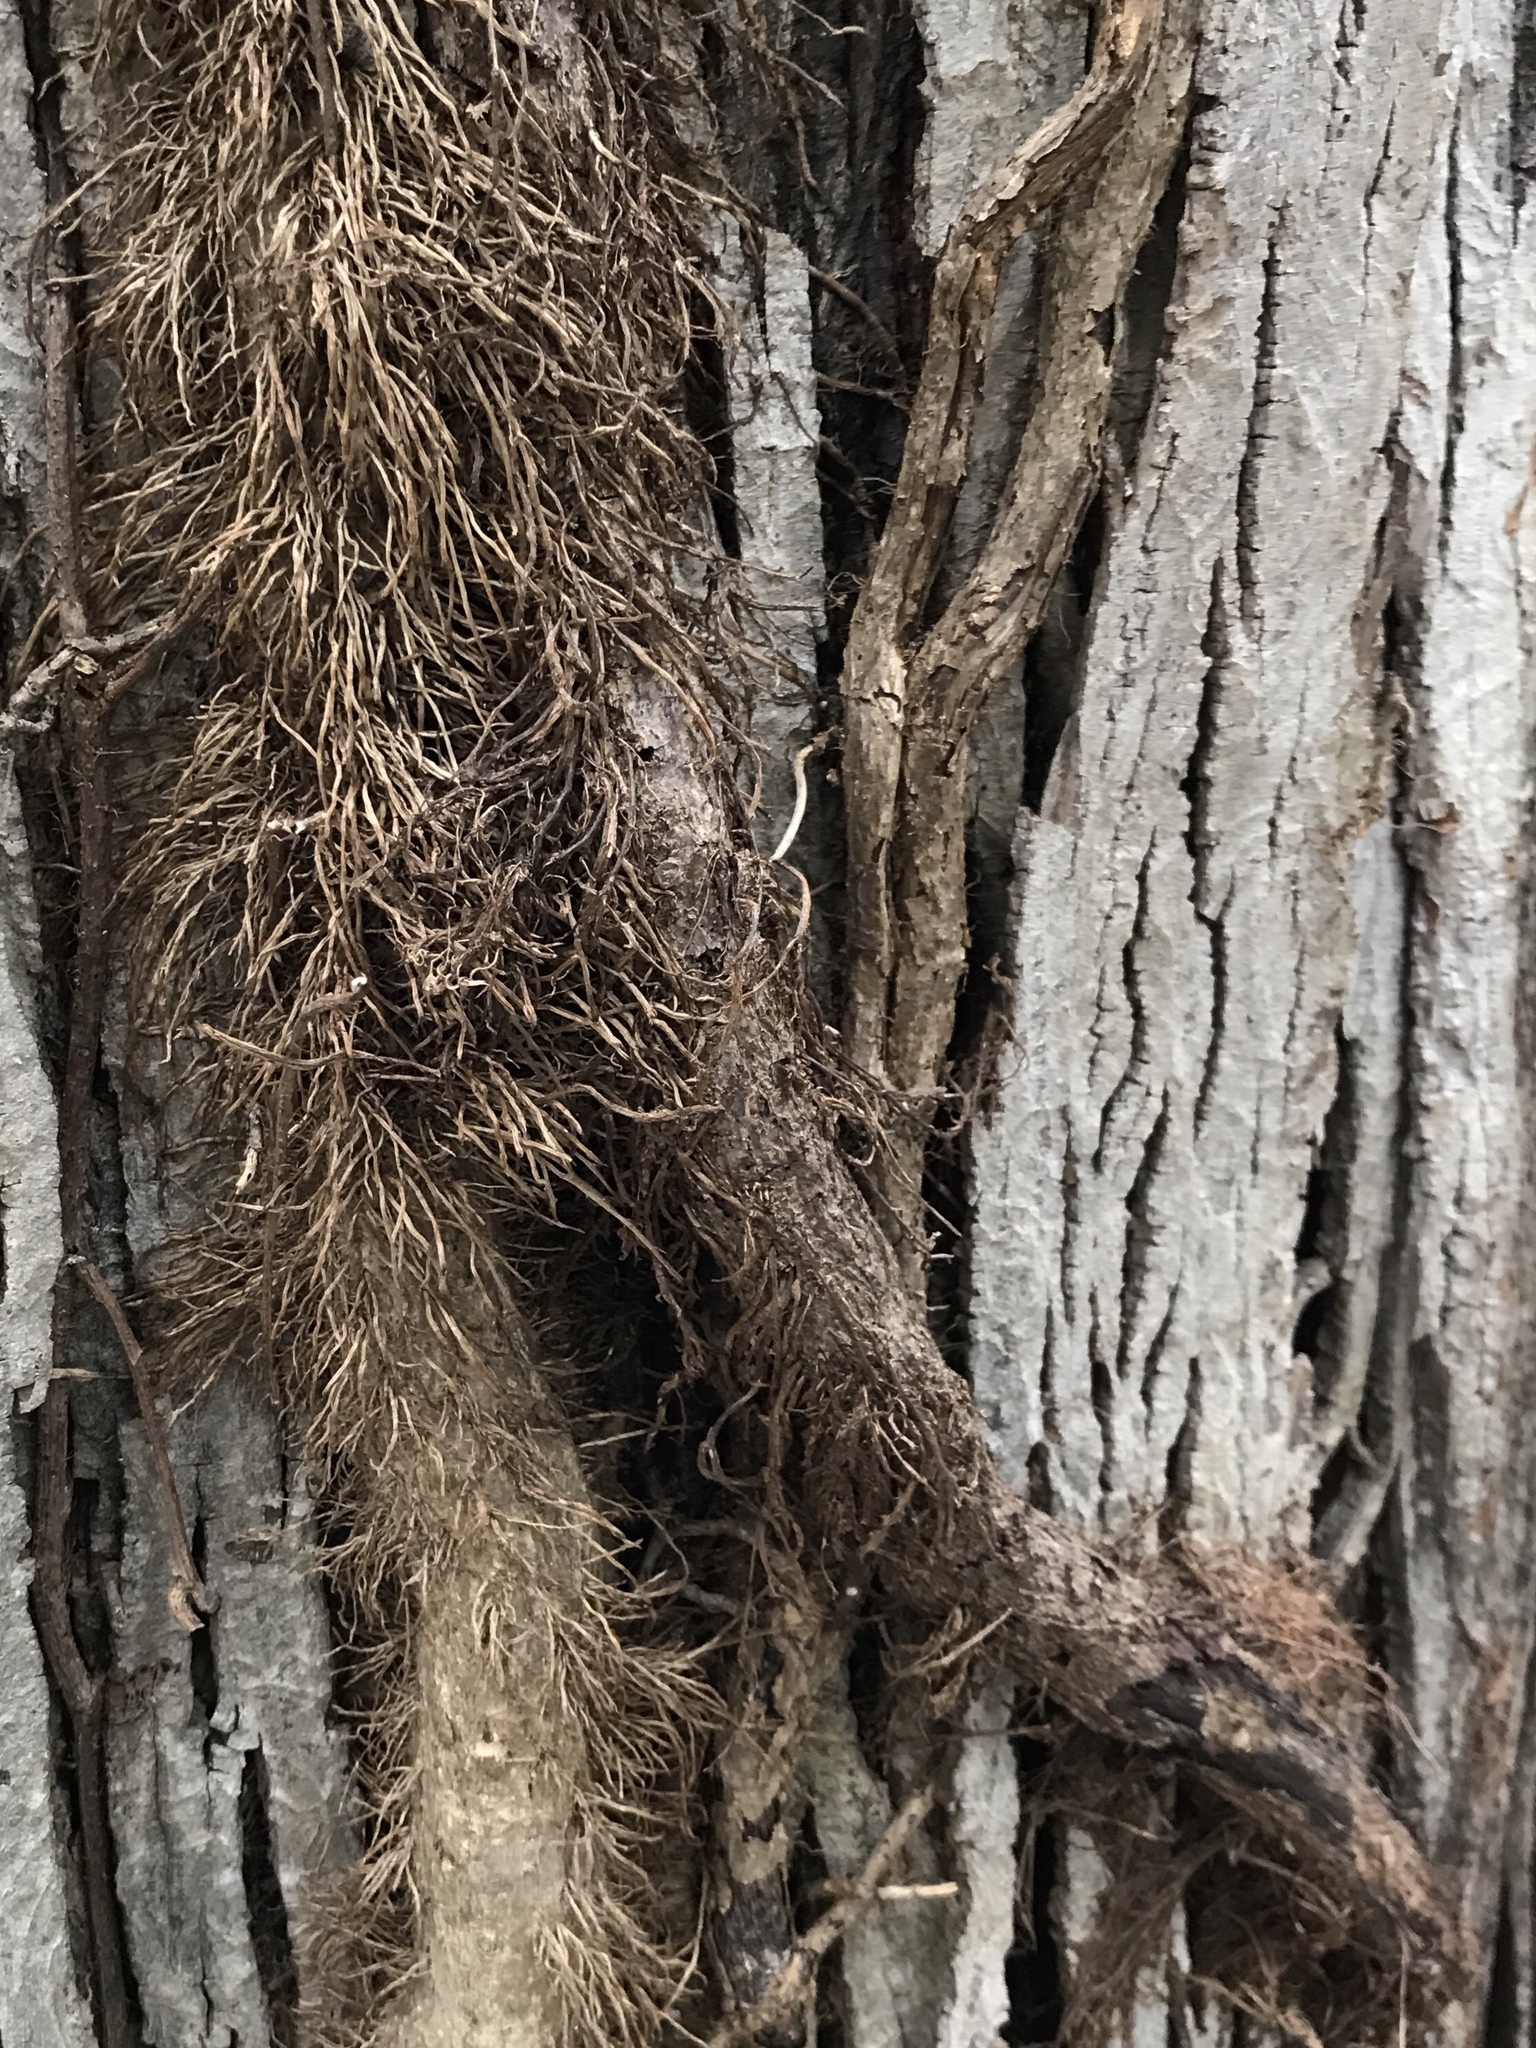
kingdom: Plantae
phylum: Tracheophyta
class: Magnoliopsida
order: Sapindales
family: Anacardiaceae
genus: Toxicodendron
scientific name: Toxicodendron radicans
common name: Poison ivy
